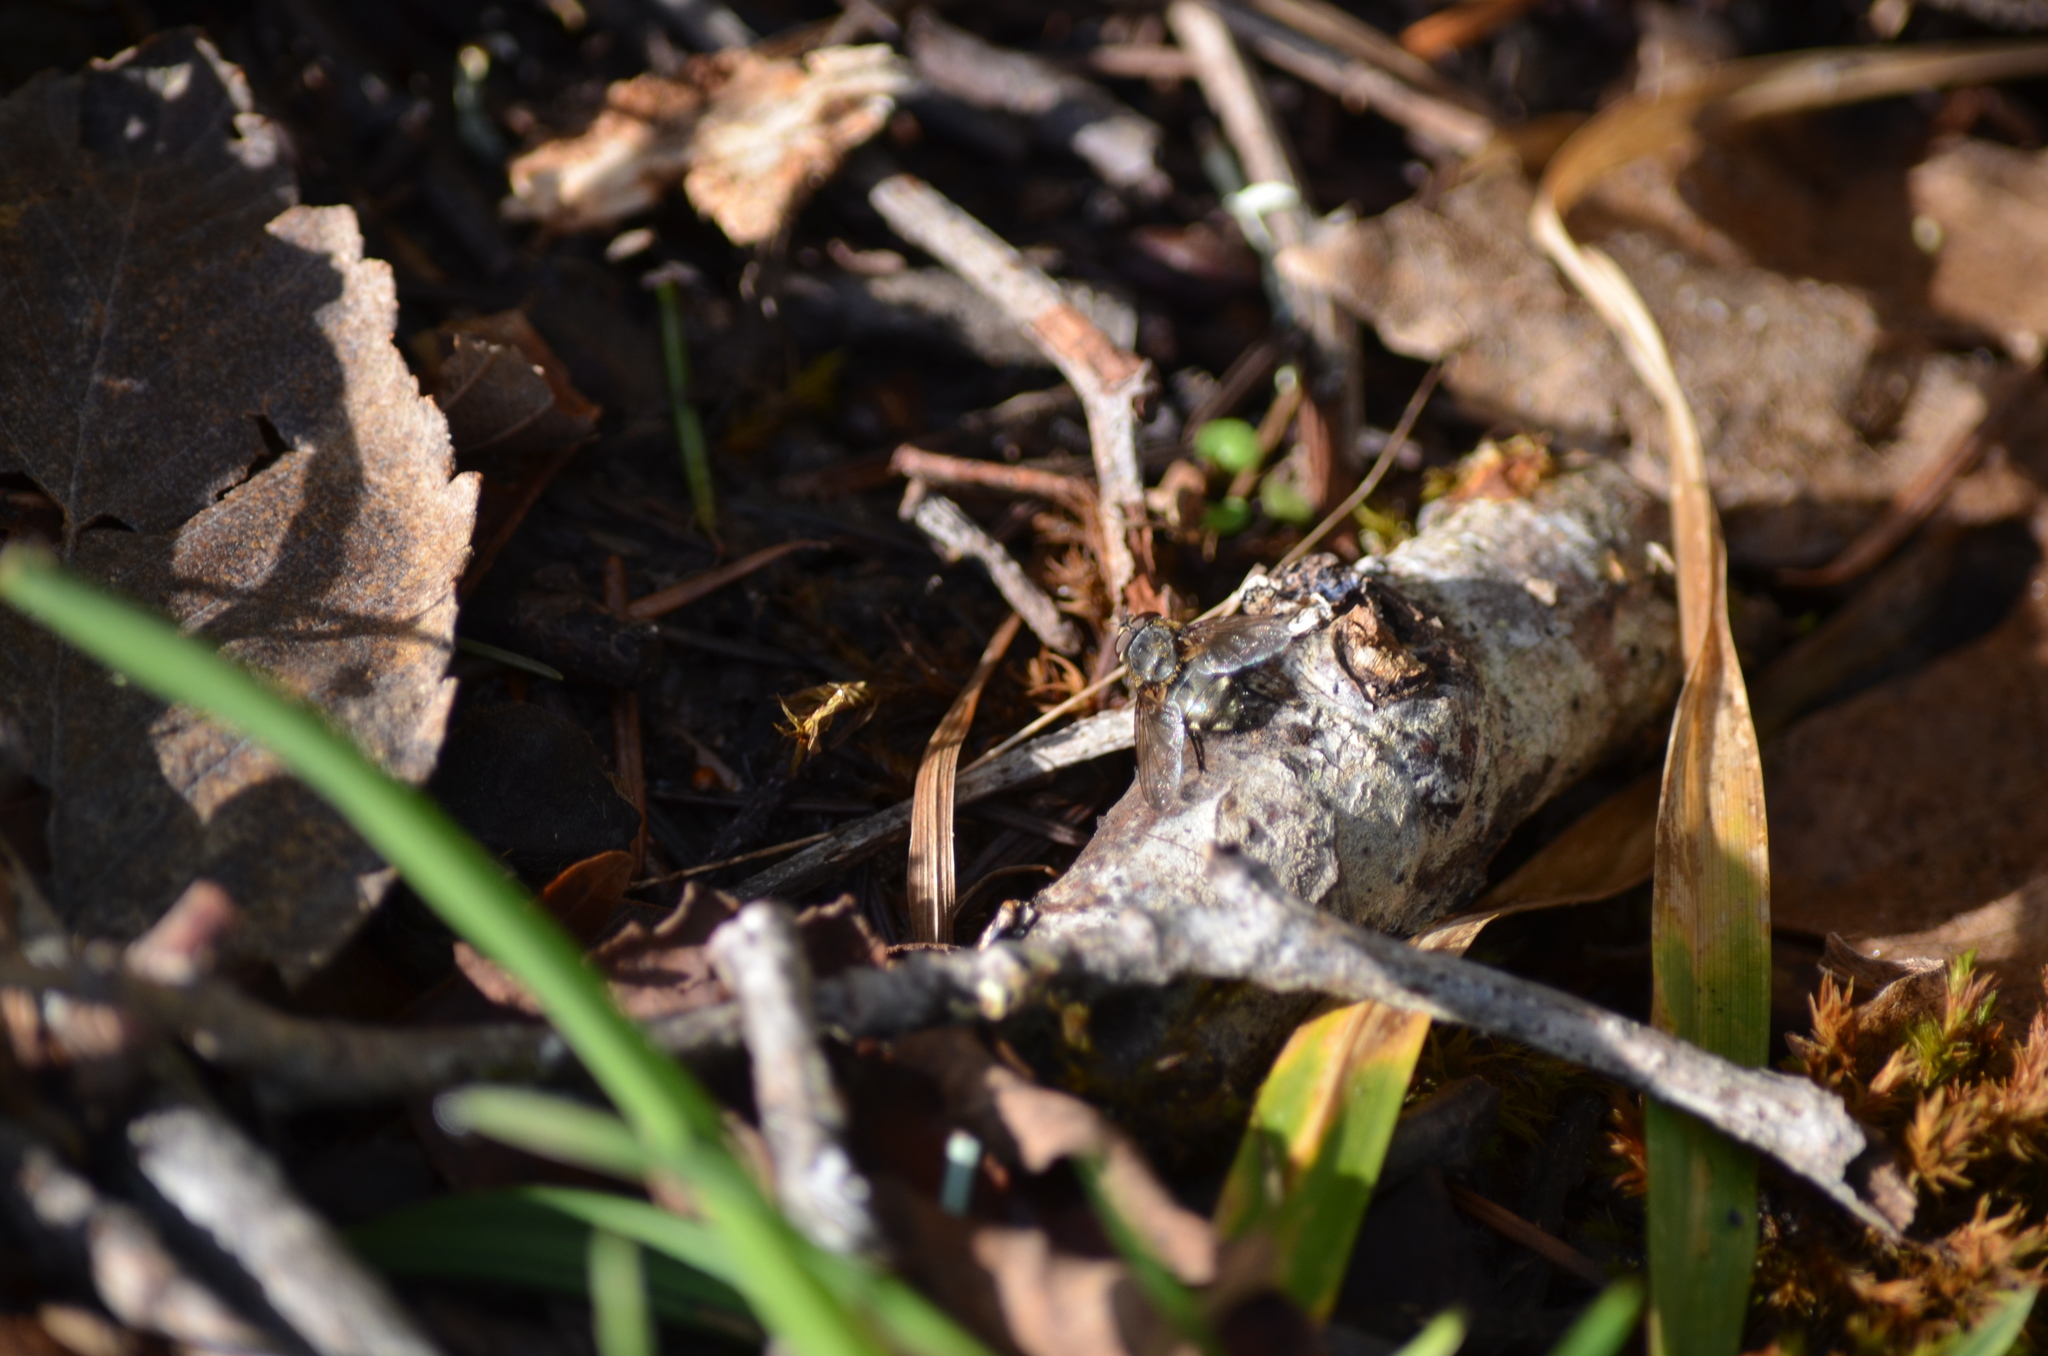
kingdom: Animalia
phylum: Arthropoda
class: Insecta
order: Diptera
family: Polleniidae
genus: Pollenia
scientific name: Pollenia
